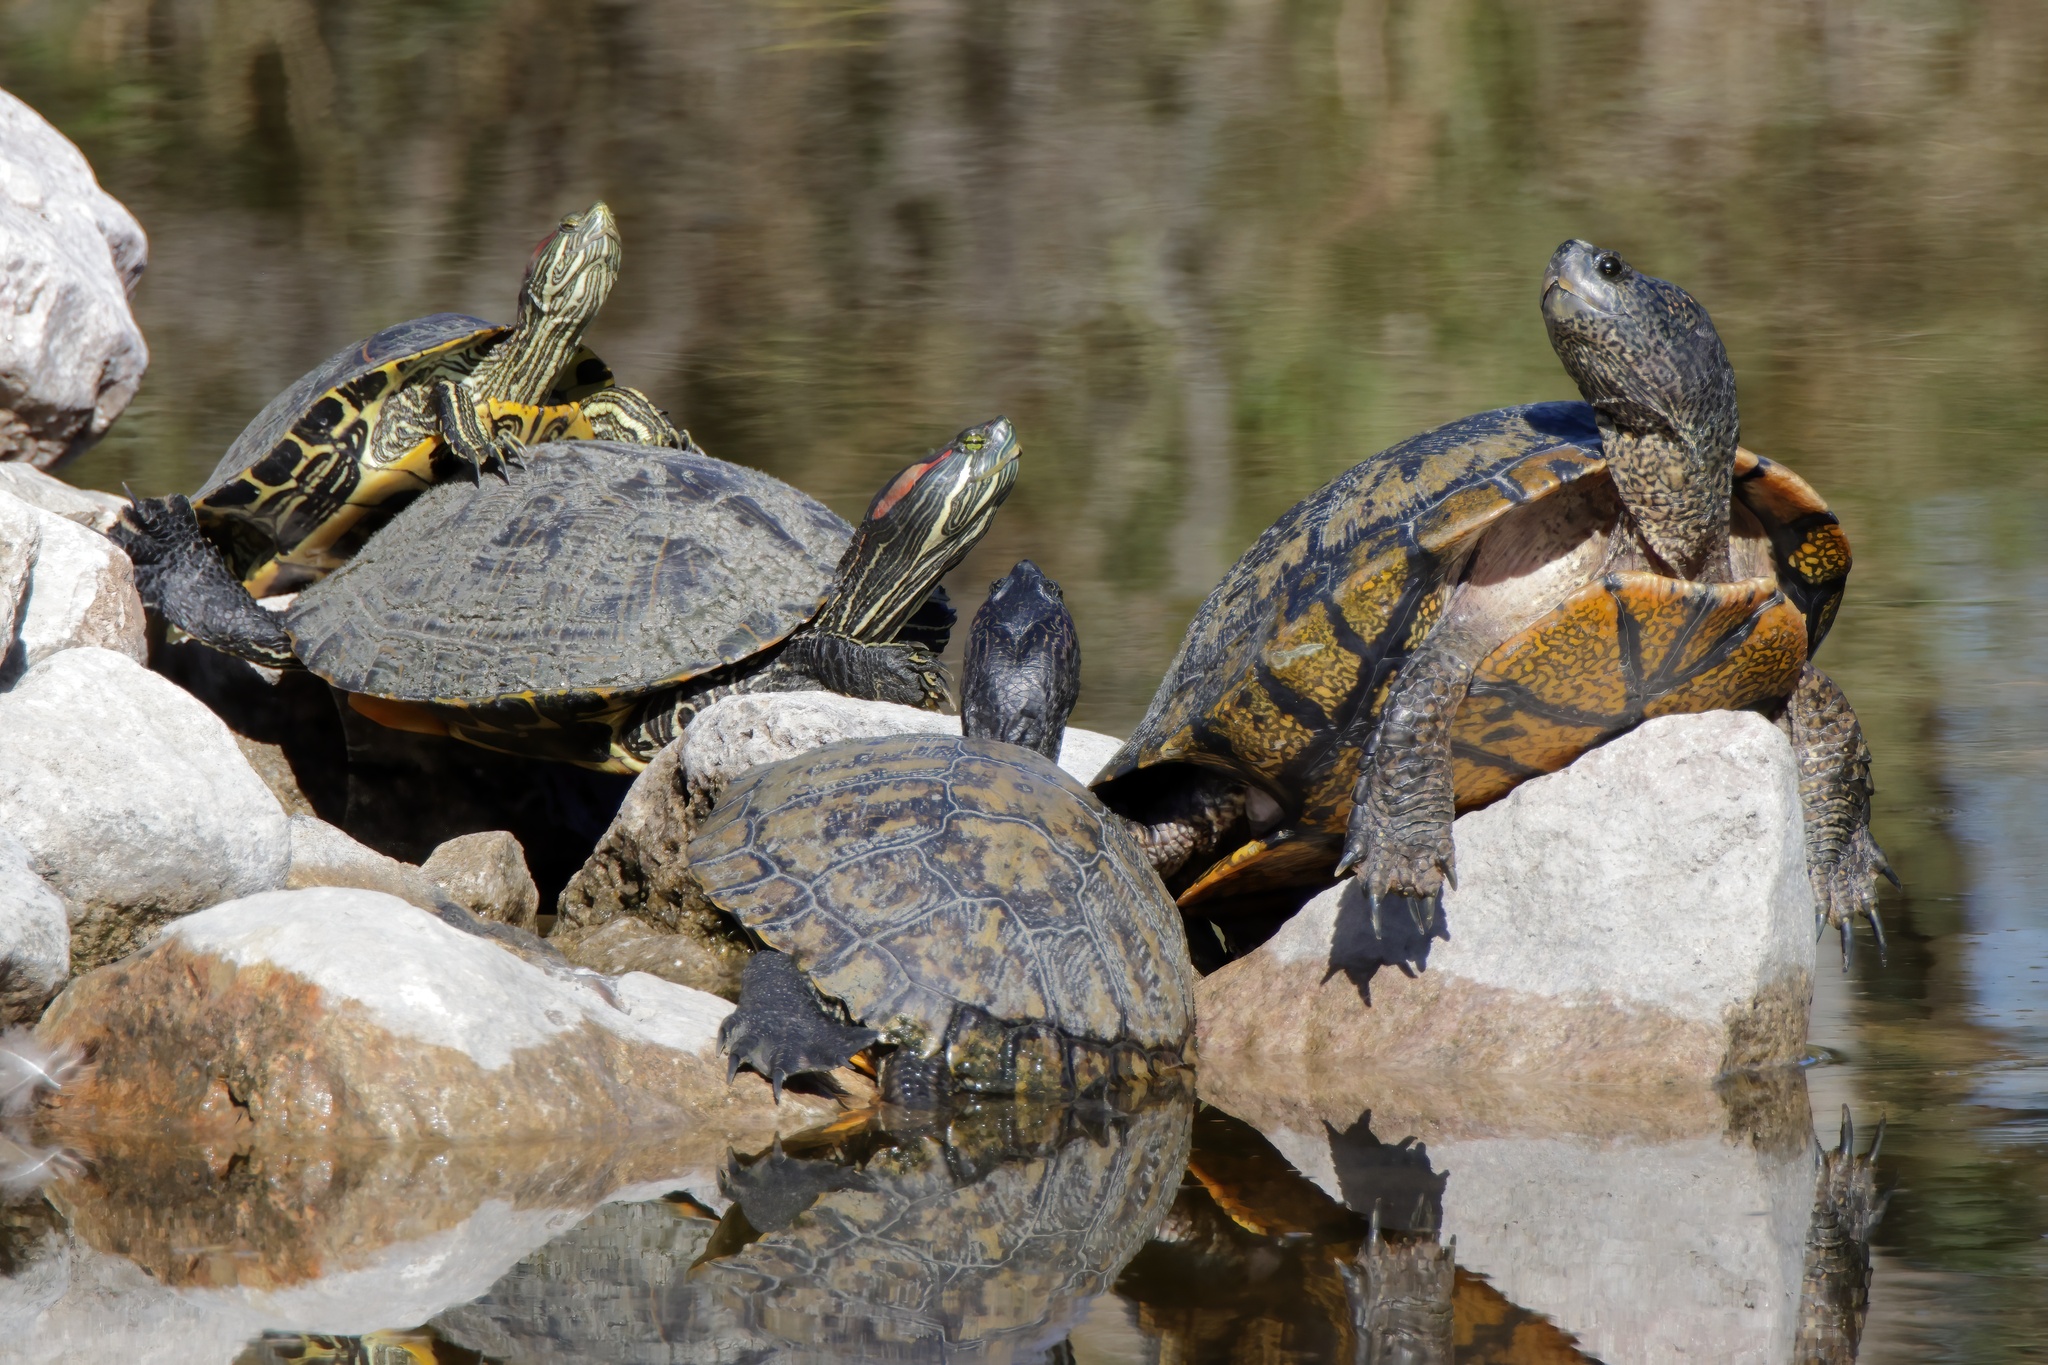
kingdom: Animalia
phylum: Chordata
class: Testudines
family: Emydidae
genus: Trachemys
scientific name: Trachemys scripta
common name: Slider
